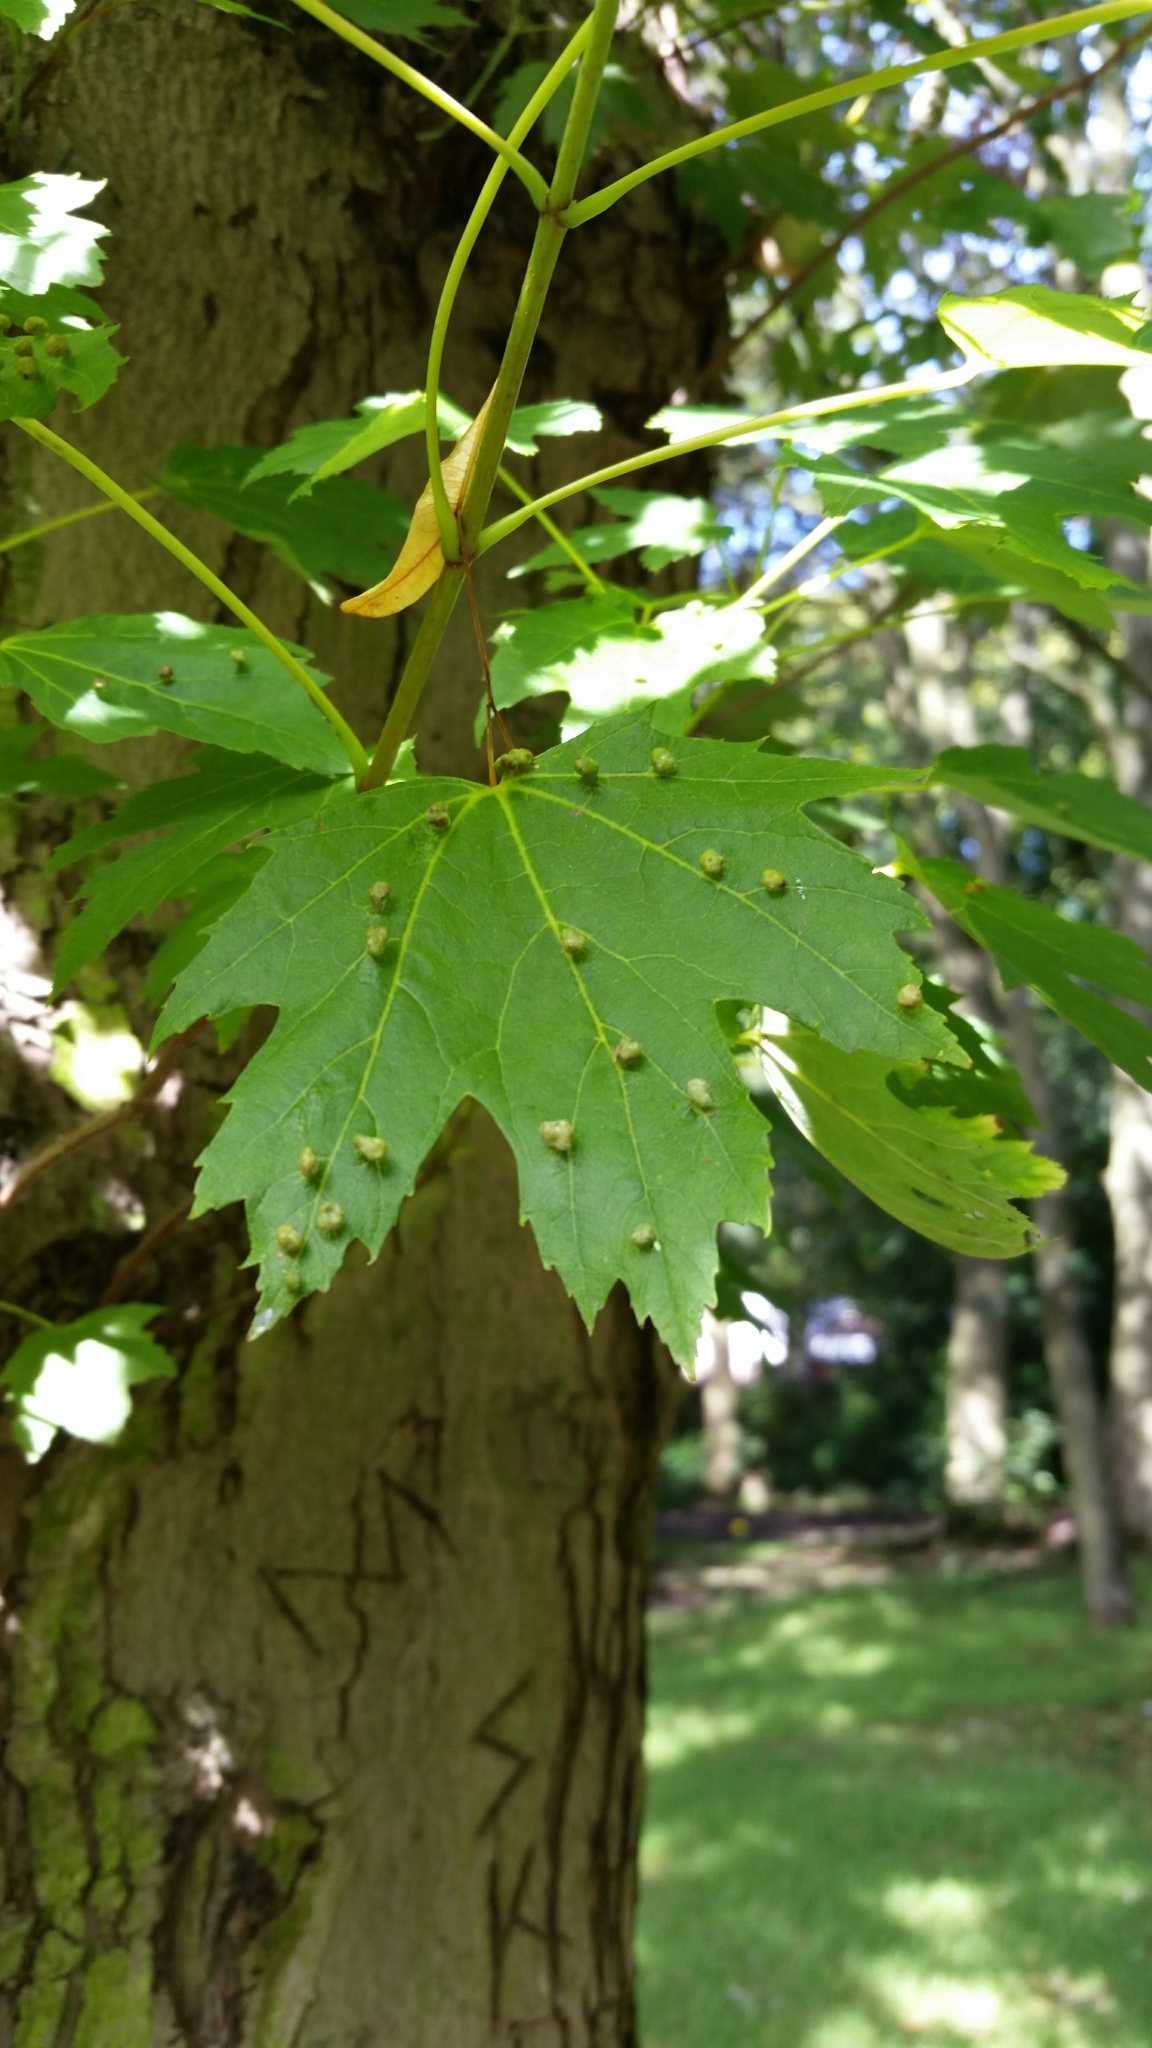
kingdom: Animalia
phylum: Arthropoda
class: Arachnida
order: Trombidiformes
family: Eriophyidae
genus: Vasates
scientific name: Vasates quadripedes
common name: Maple bladder gall mite
